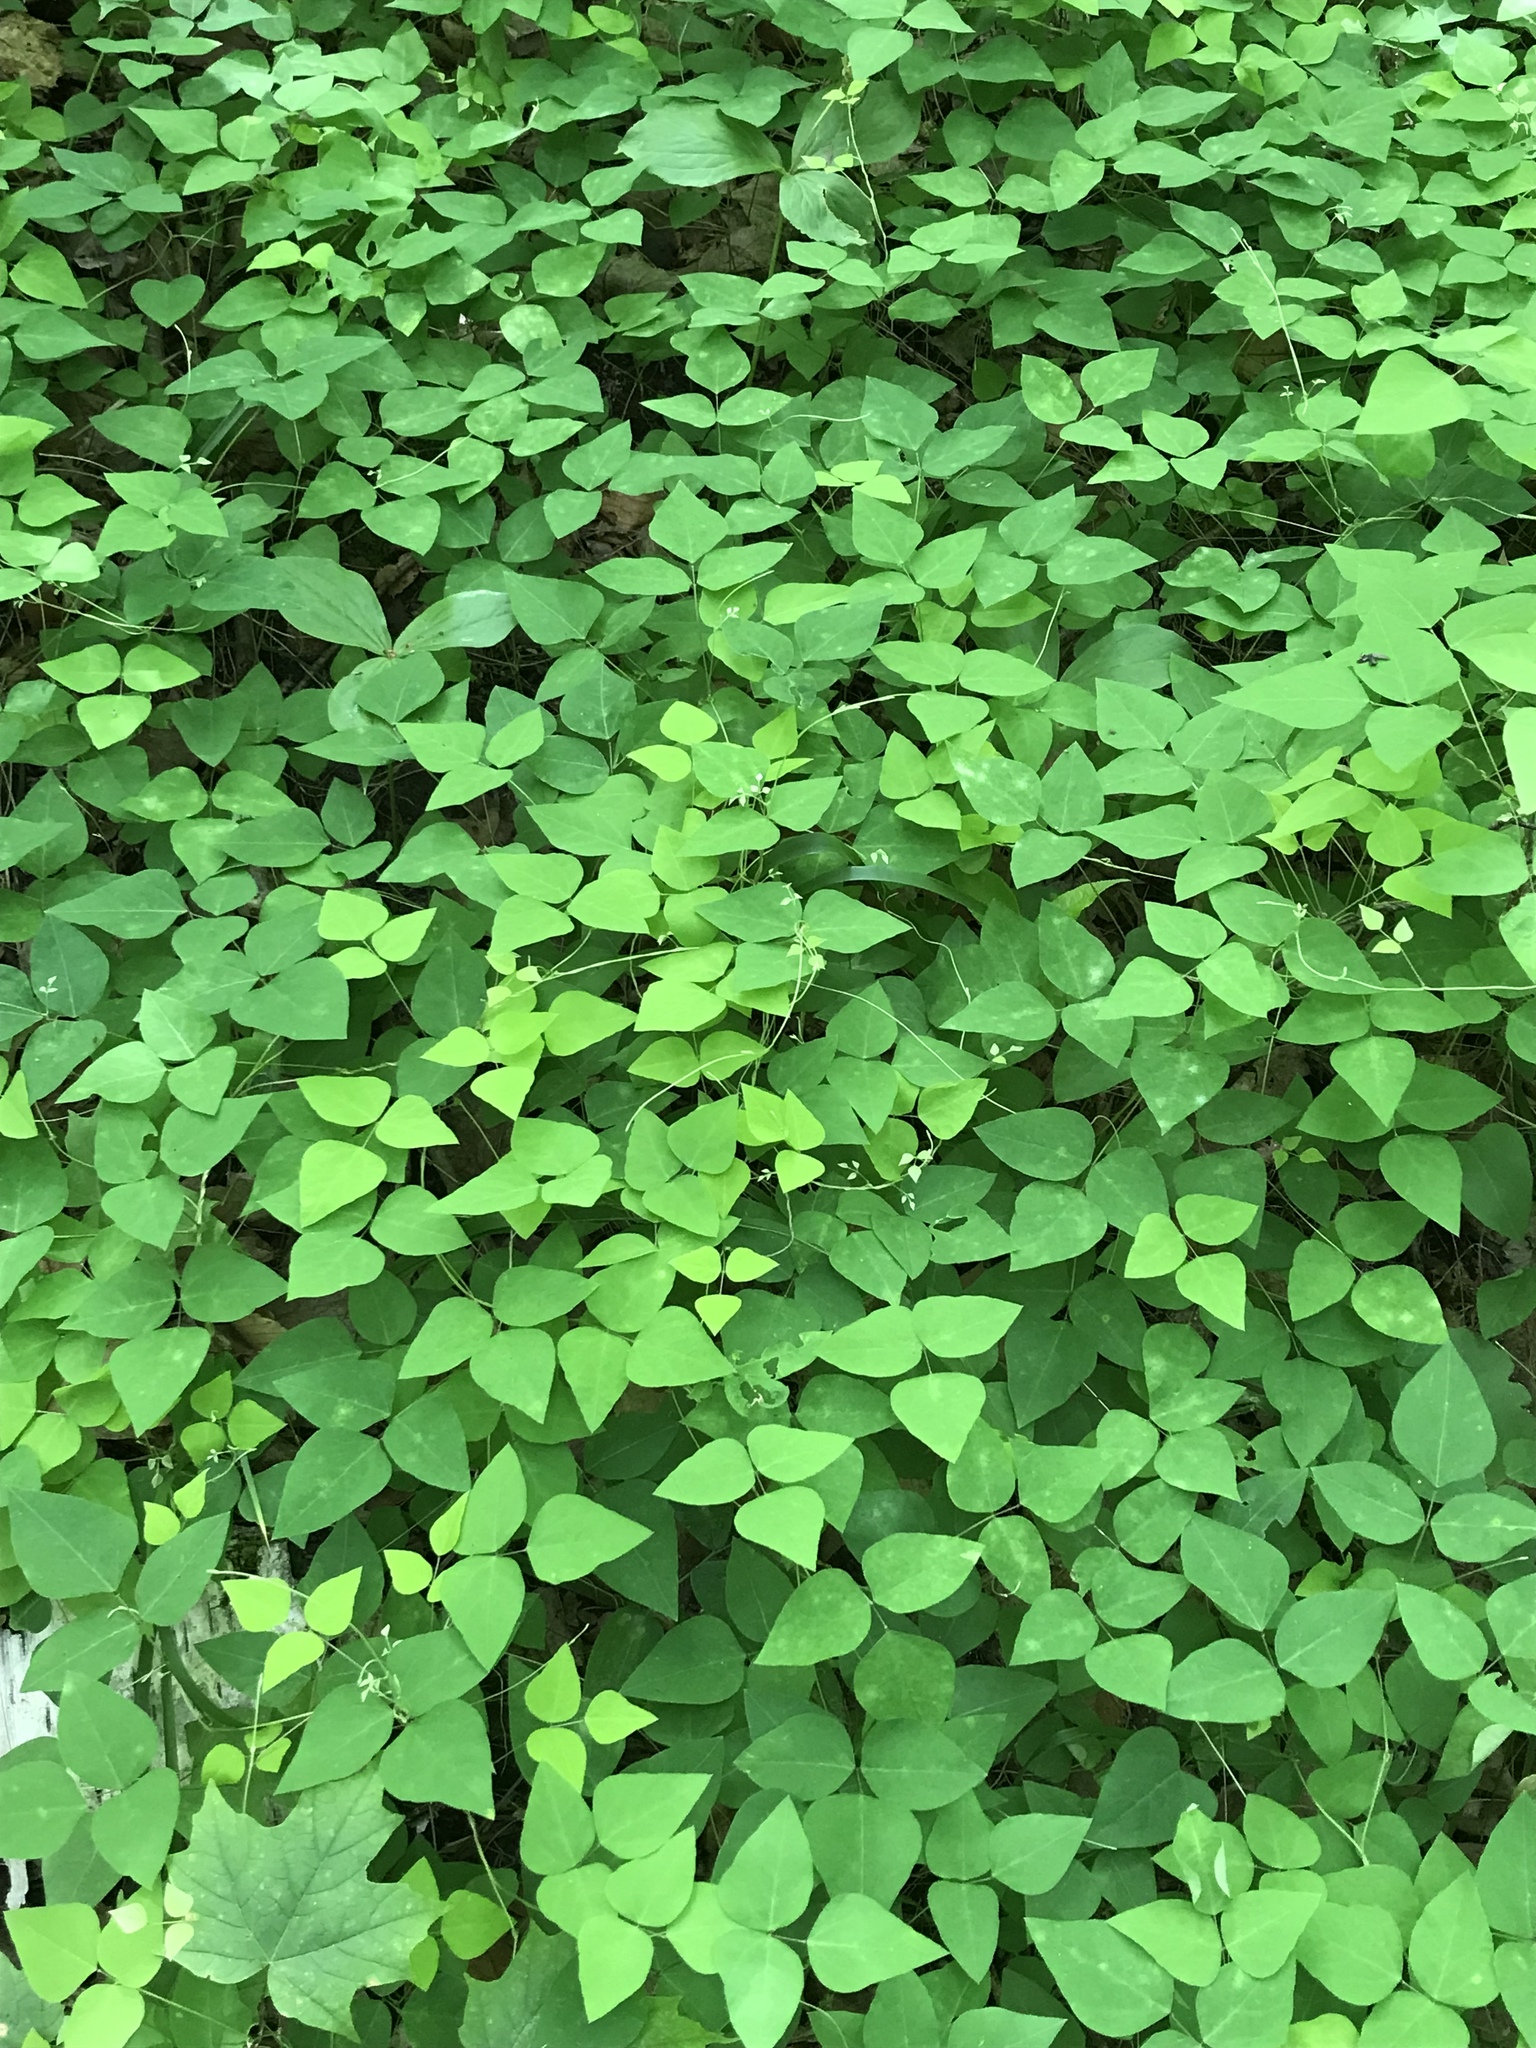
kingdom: Plantae
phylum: Tracheophyta
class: Magnoliopsida
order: Fabales
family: Fabaceae
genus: Amphicarpaea
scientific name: Amphicarpaea bracteata
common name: American hog peanut
